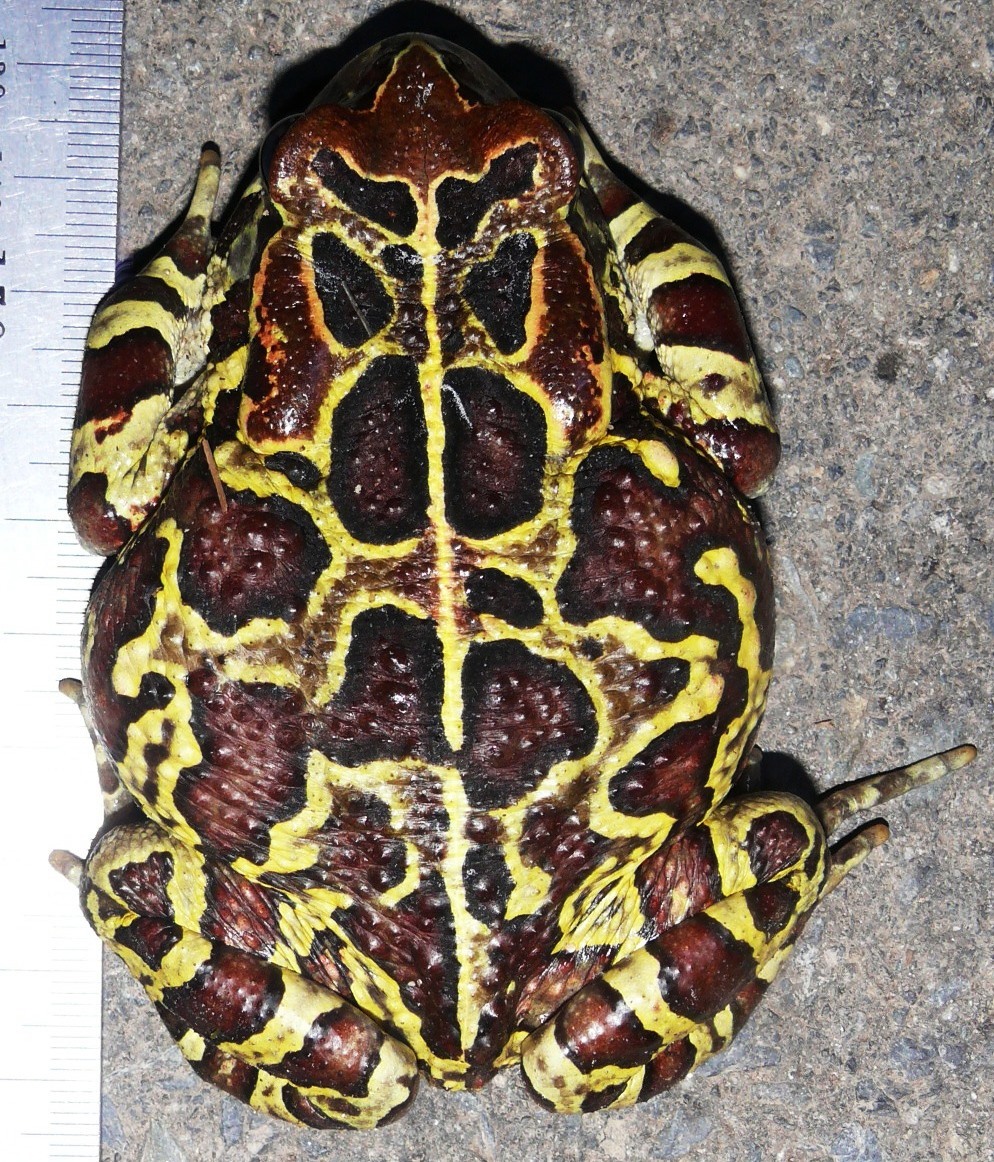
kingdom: Animalia
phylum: Chordata
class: Amphibia
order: Anura
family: Bufonidae
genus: Sclerophrys
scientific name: Sclerophrys pantherina
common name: Panther toad
